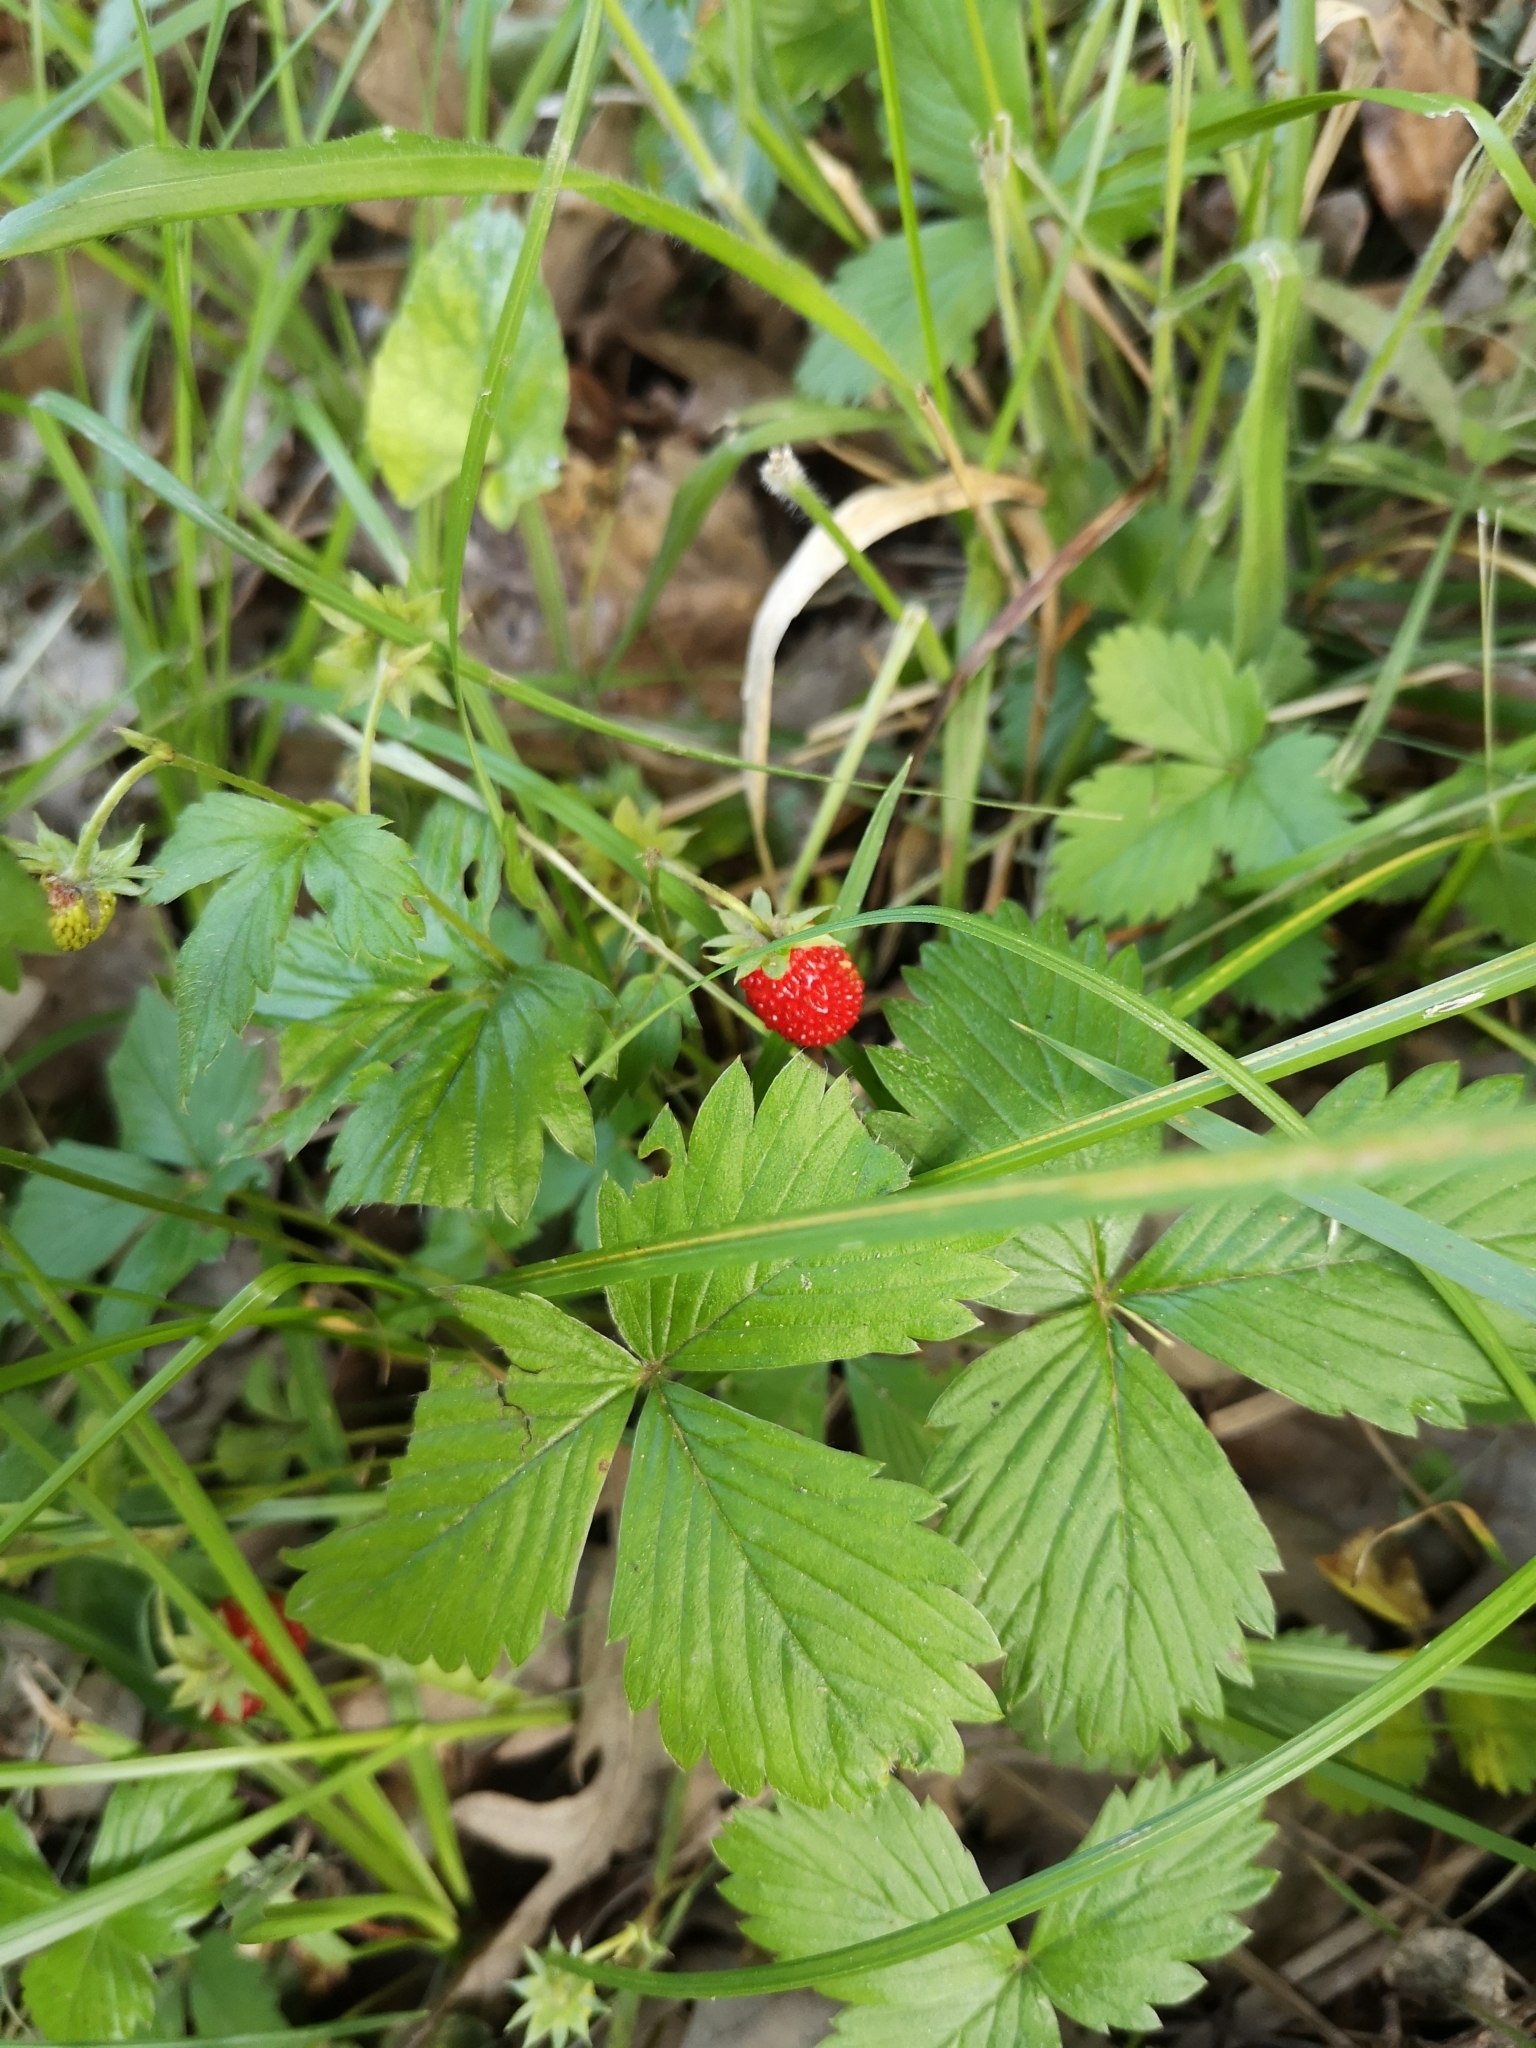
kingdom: Plantae
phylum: Tracheophyta
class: Magnoliopsida
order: Rosales
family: Rosaceae
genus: Fragaria
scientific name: Fragaria vesca
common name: Wild strawberry
